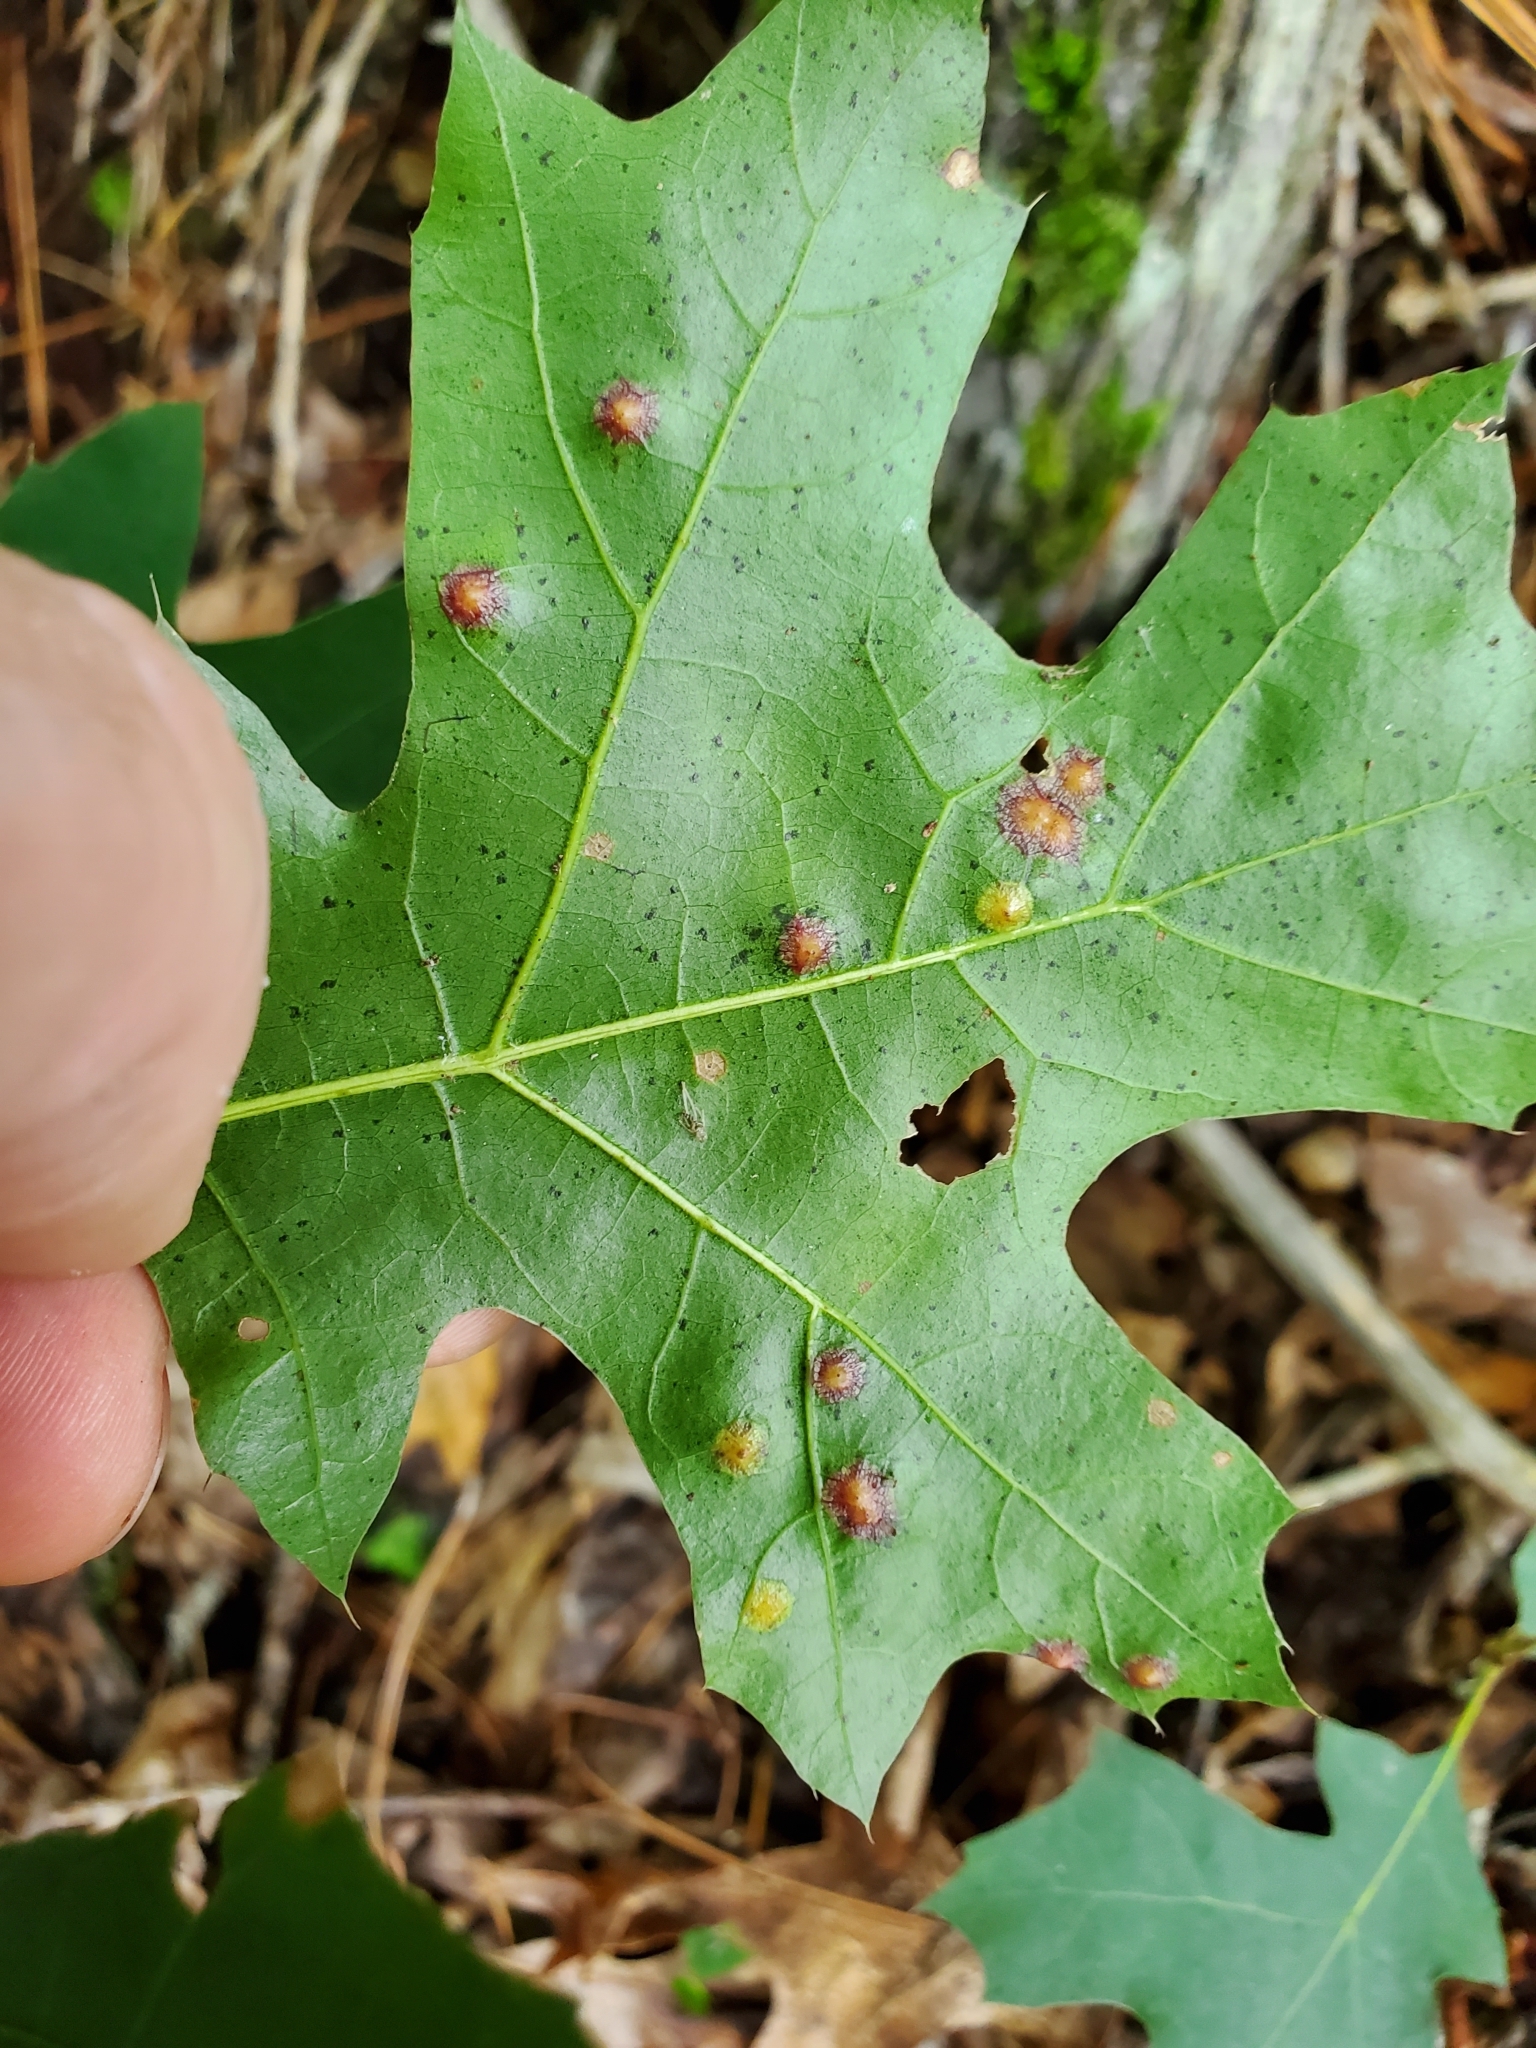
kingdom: Animalia
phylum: Arthropoda
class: Insecta
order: Diptera
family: Cecidomyiidae
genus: Polystepha
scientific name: Polystepha pilulae
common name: Oak leaf gall midge
